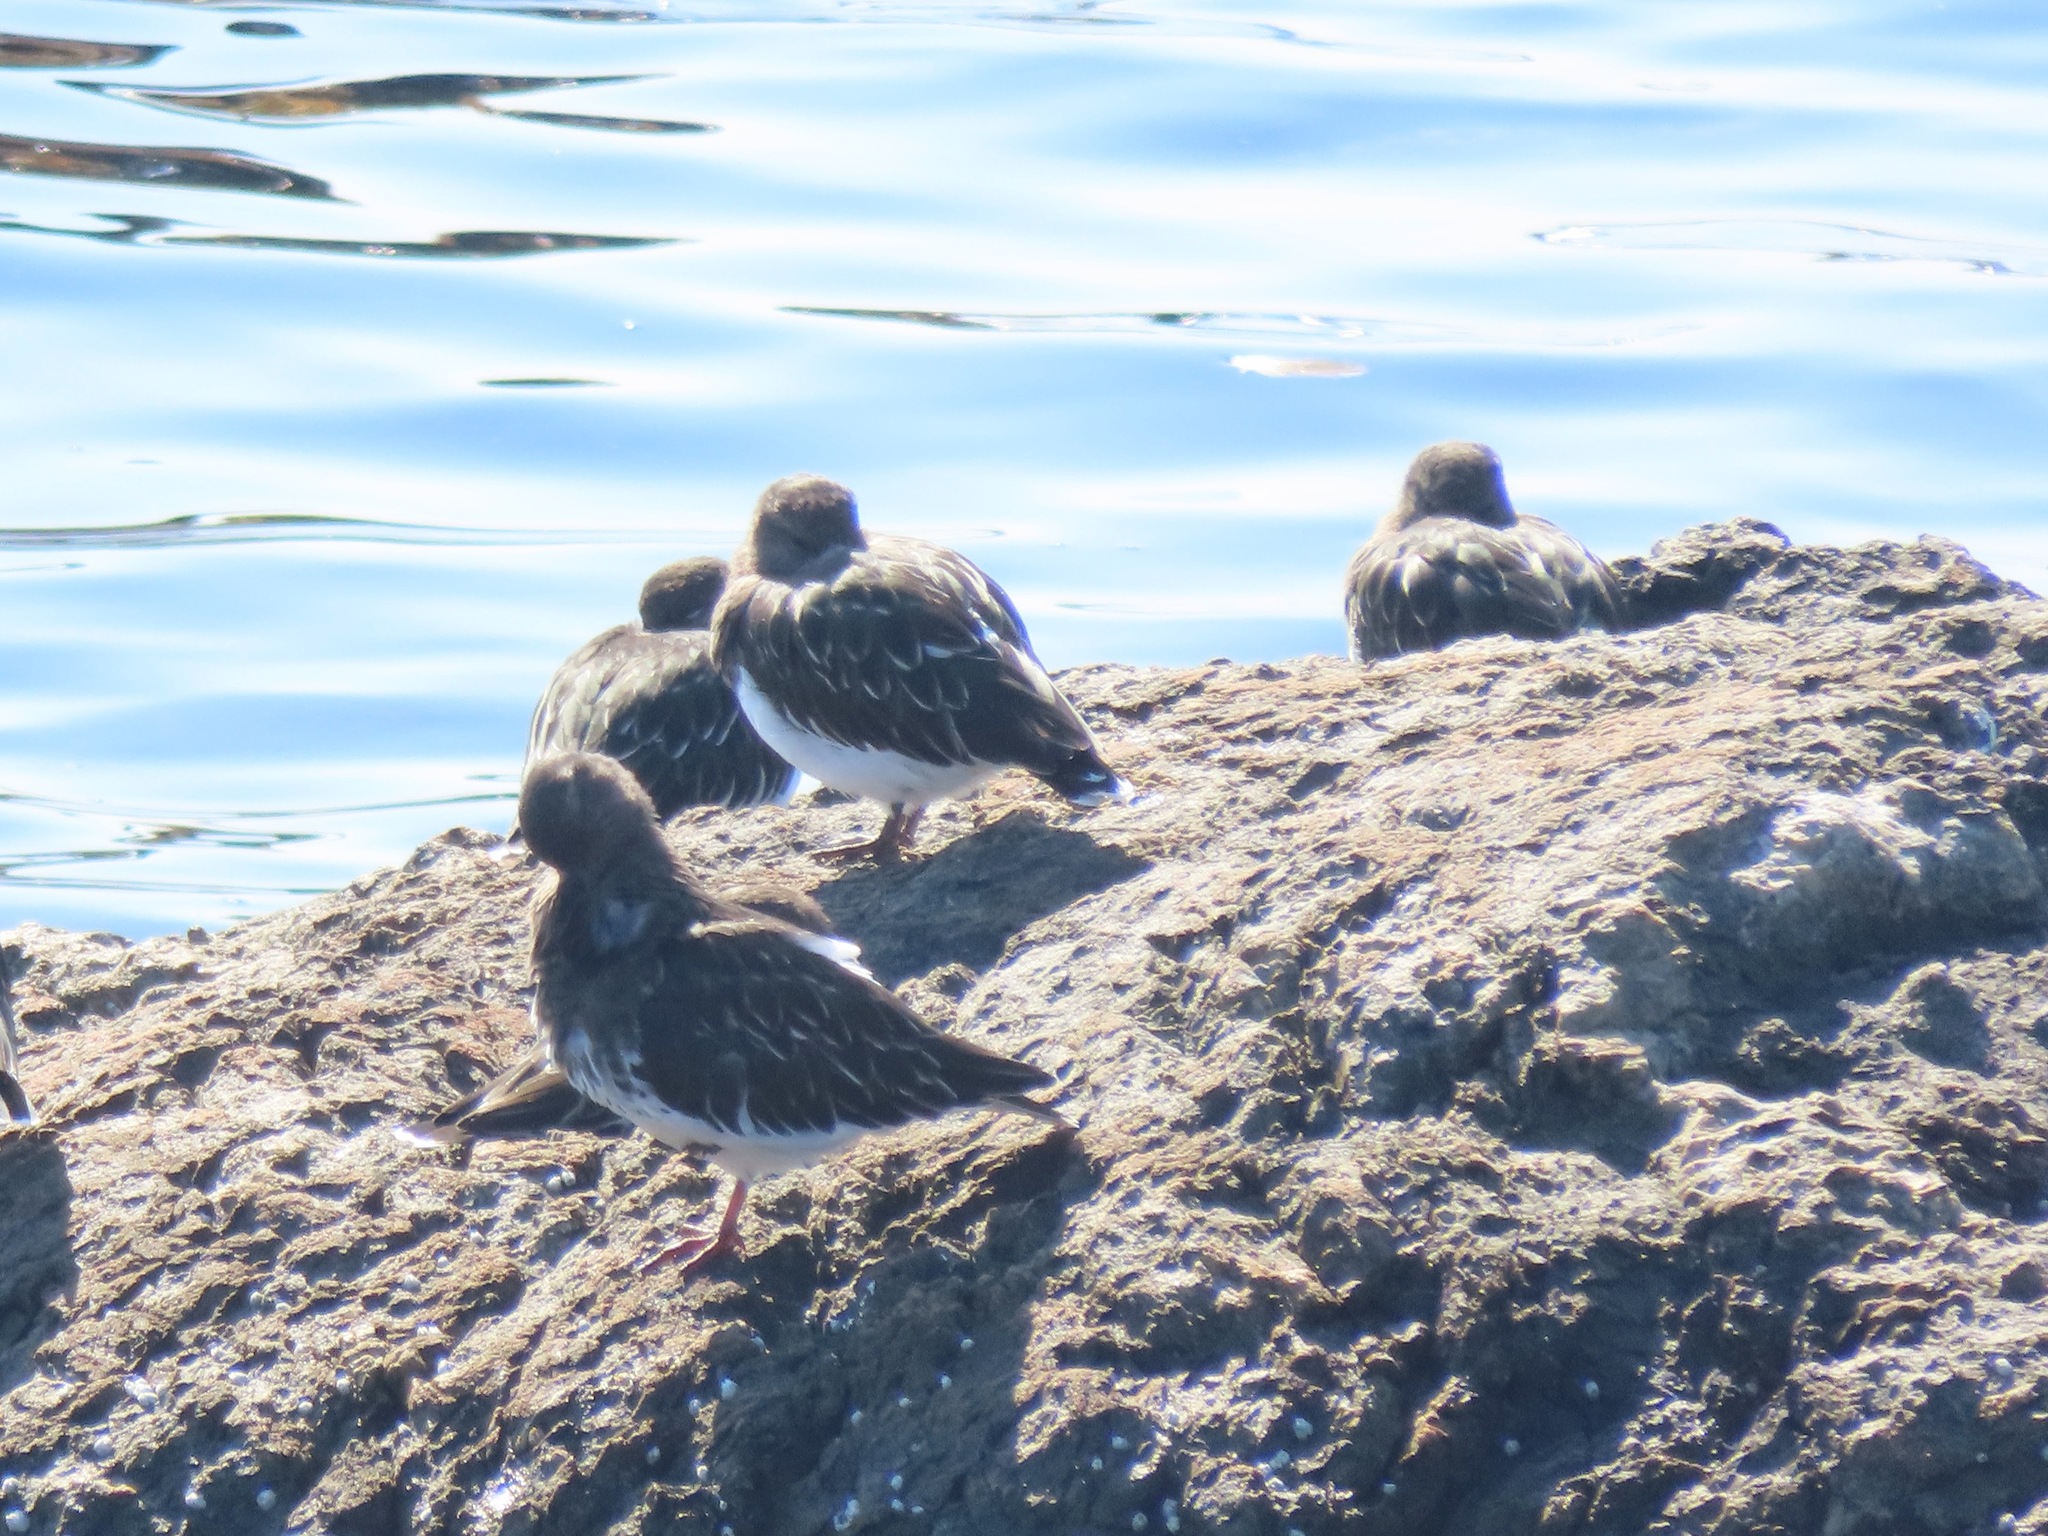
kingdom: Animalia
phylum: Chordata
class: Aves
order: Charadriiformes
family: Scolopacidae
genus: Arenaria
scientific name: Arenaria melanocephala
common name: Black turnstone
